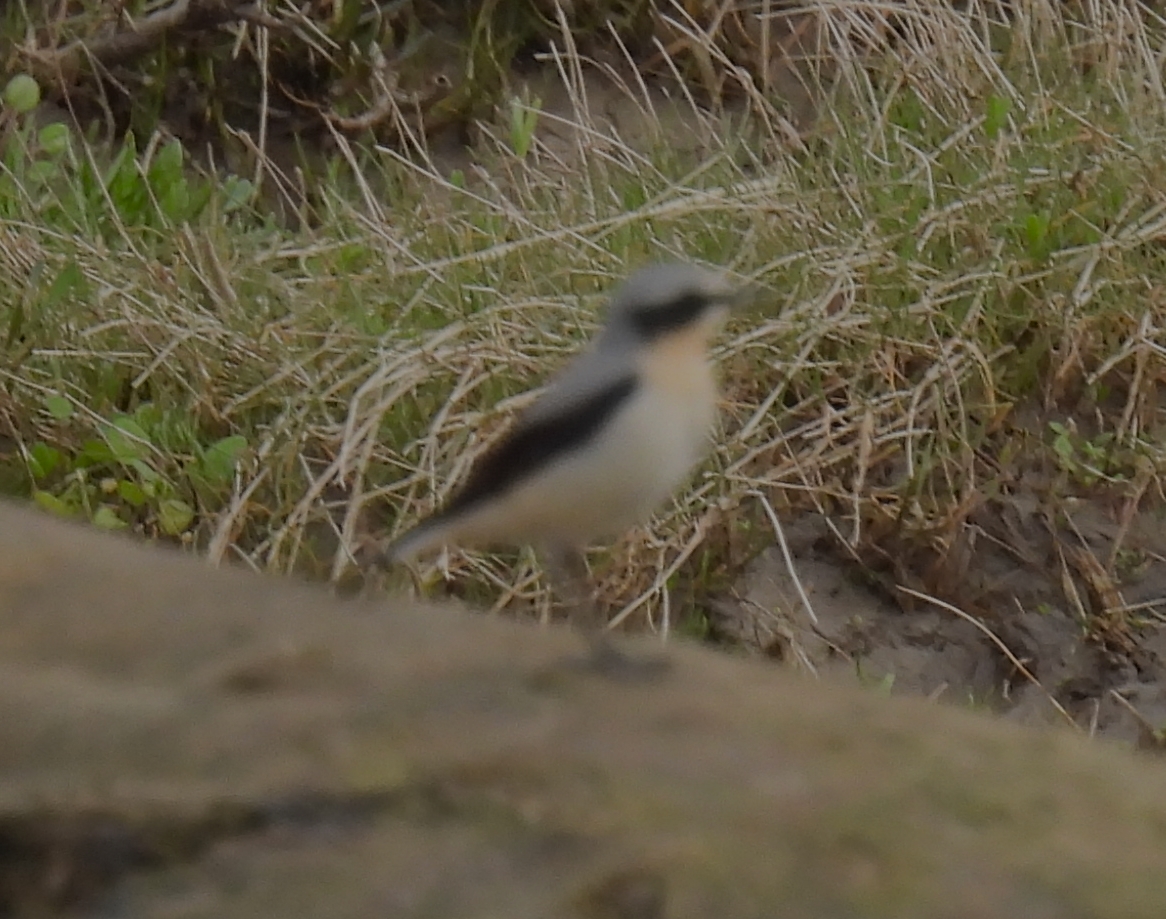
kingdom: Animalia
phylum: Chordata
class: Aves
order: Passeriformes
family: Muscicapidae
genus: Oenanthe
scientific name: Oenanthe oenanthe
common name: Northern wheatear
